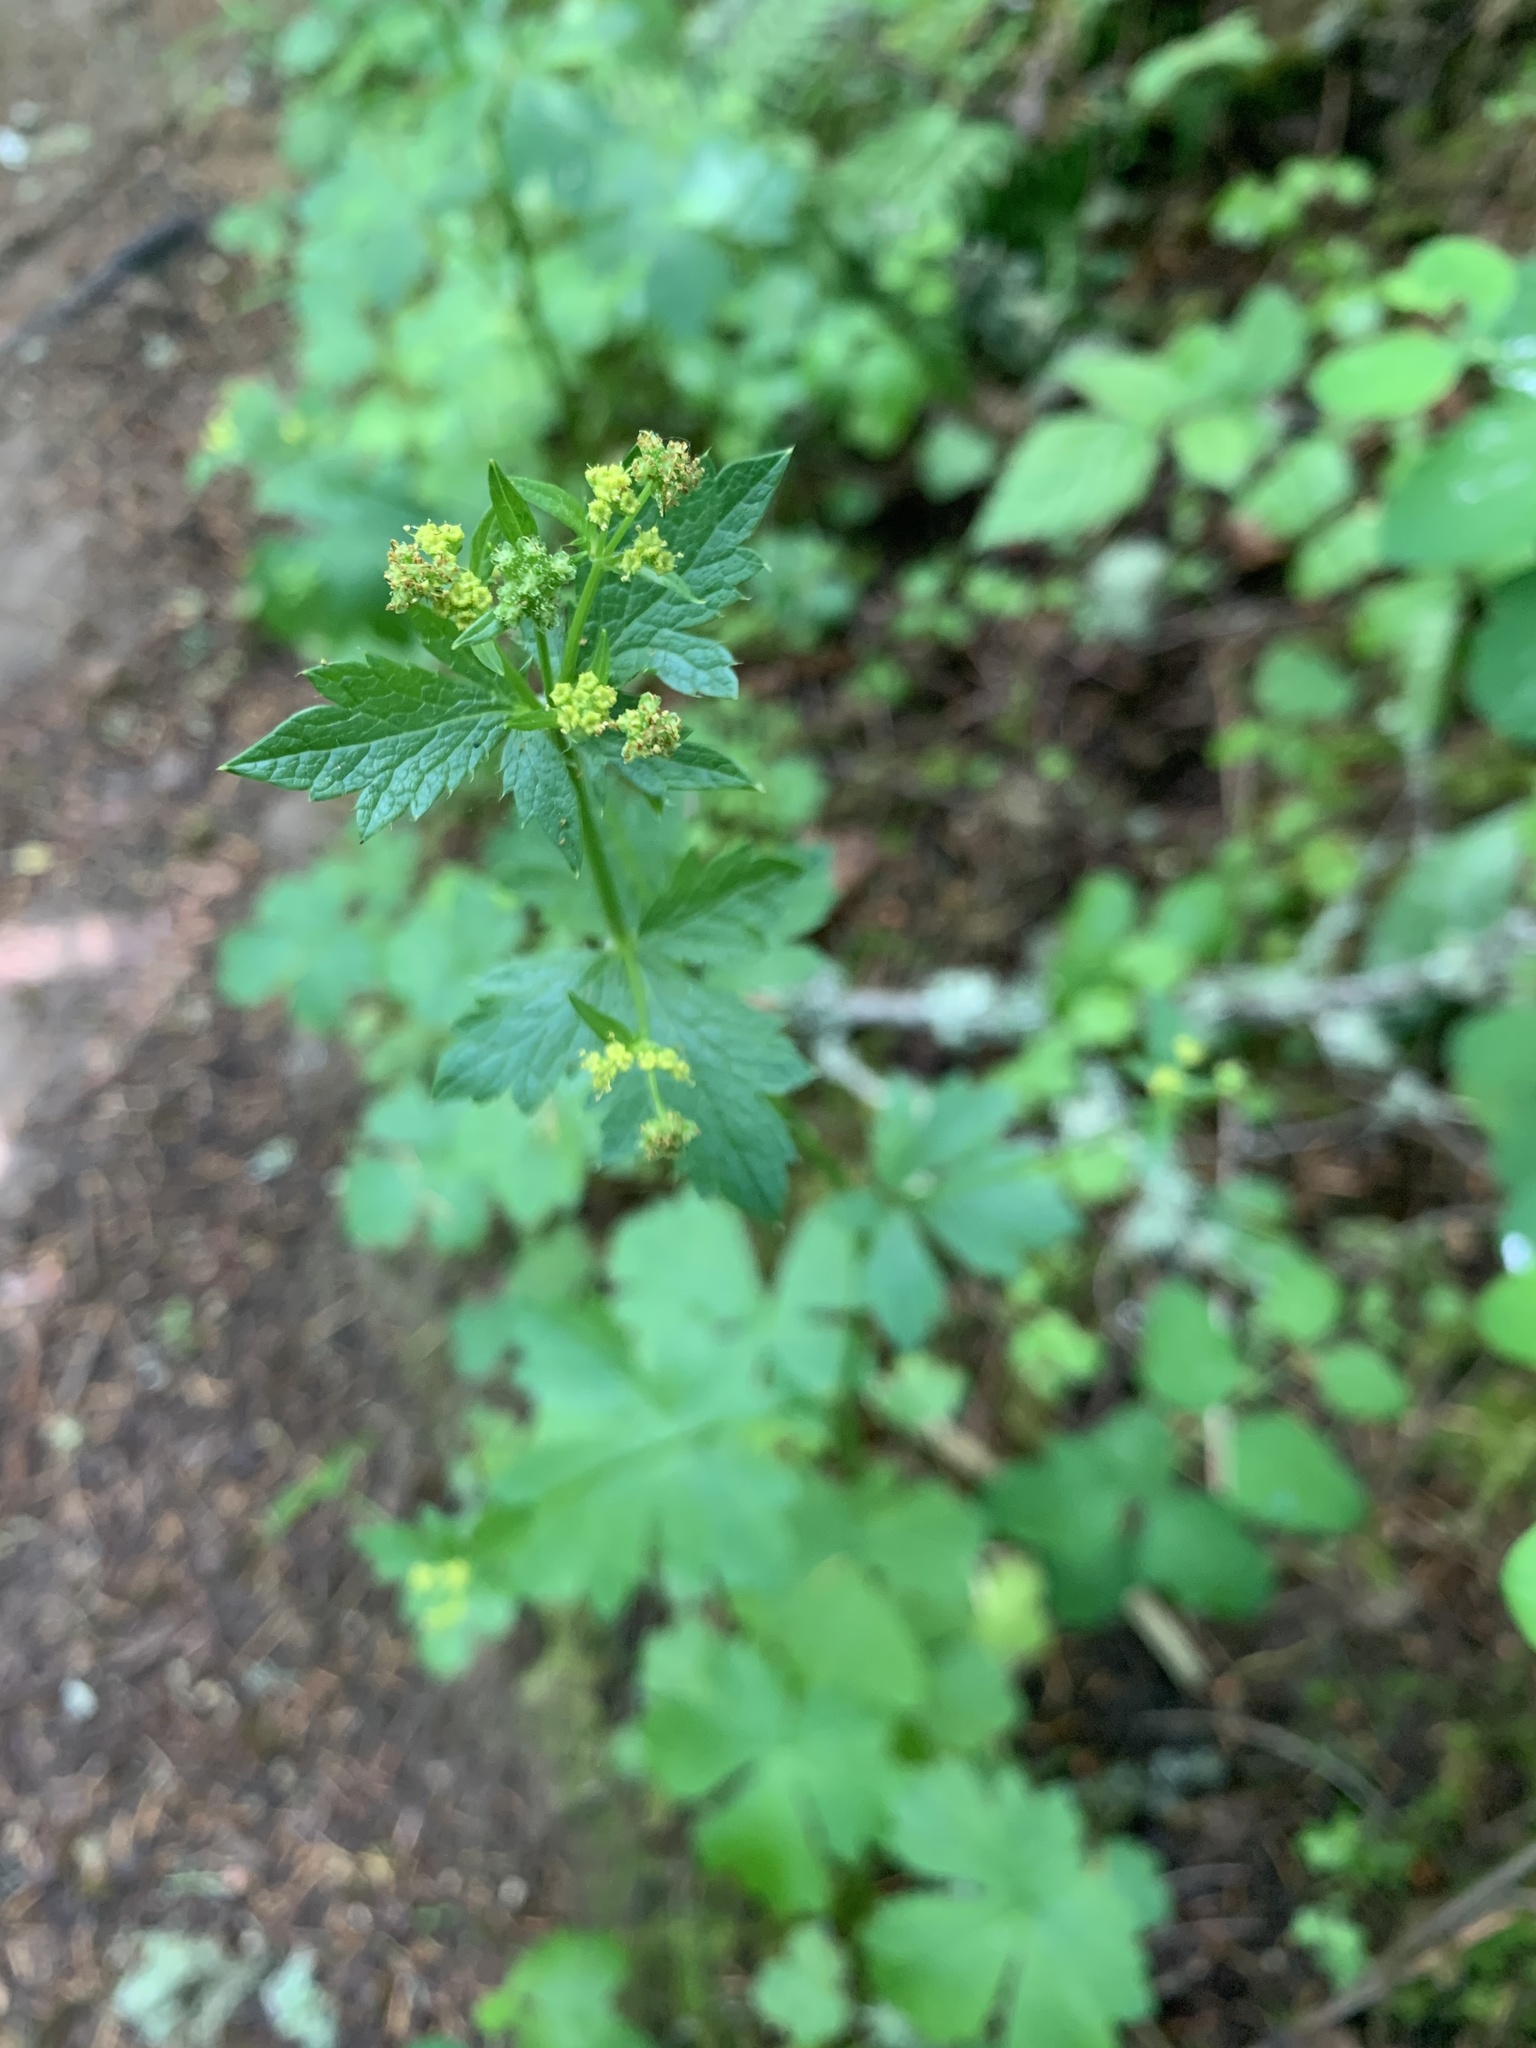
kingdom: Plantae
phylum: Tracheophyta
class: Magnoliopsida
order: Apiales
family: Apiaceae
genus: Sanicula
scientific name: Sanicula crassicaulis
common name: Western snakeroot
